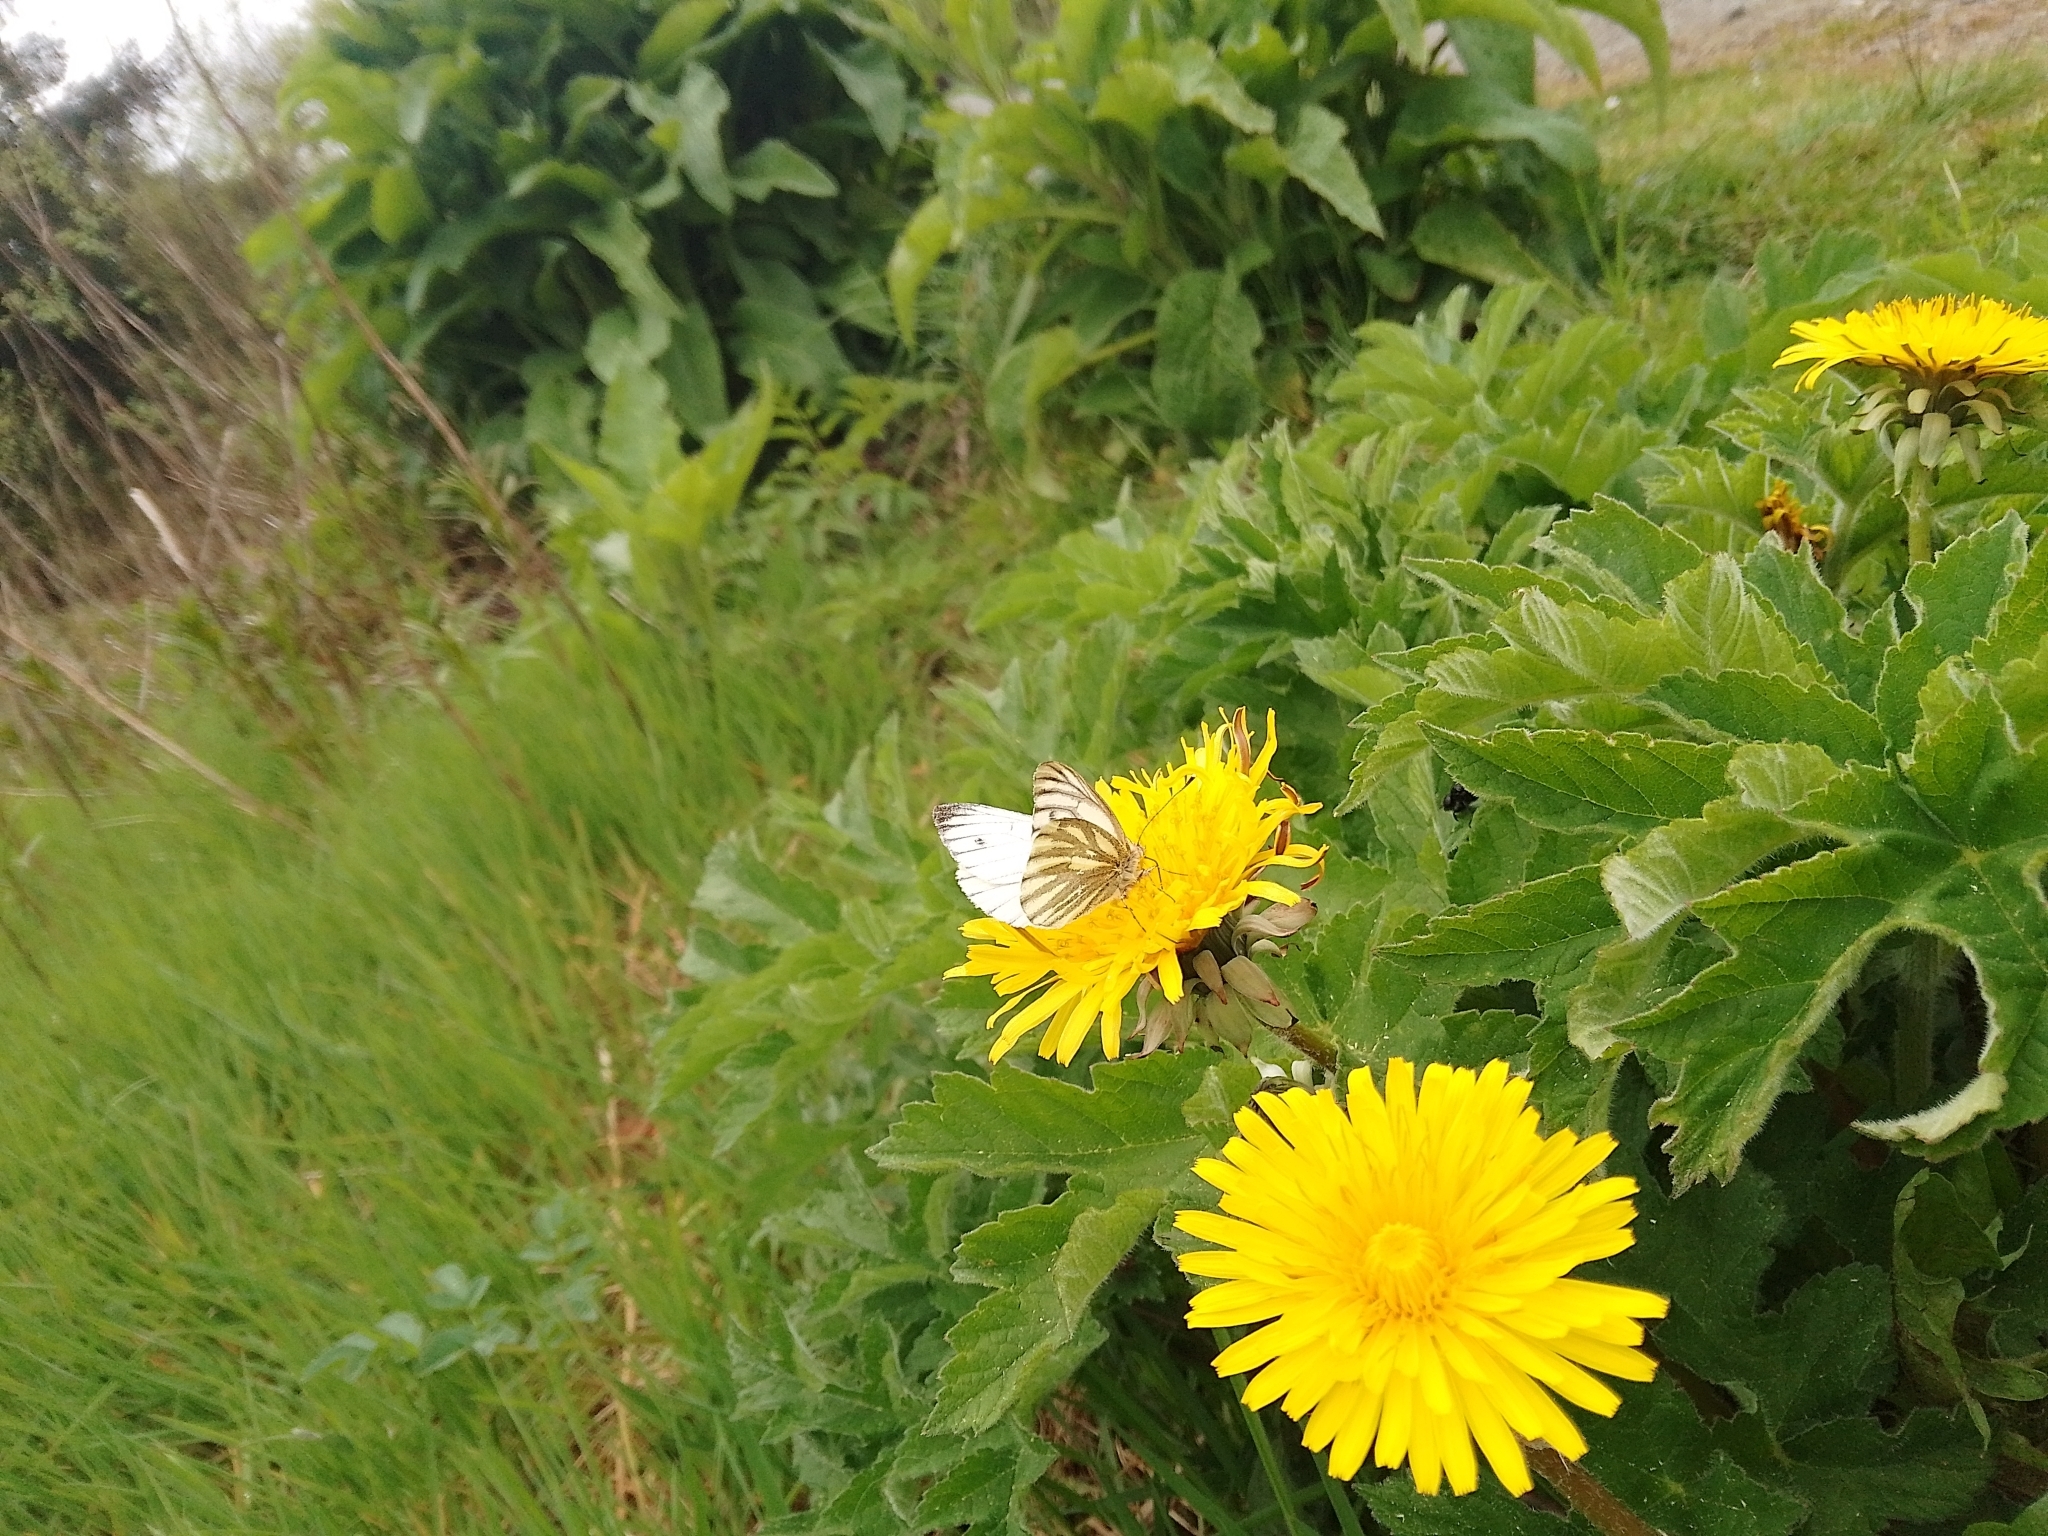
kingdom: Animalia
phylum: Arthropoda
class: Insecta
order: Lepidoptera
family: Pieridae
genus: Pieris
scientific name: Pieris napi
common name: Green-veined white
